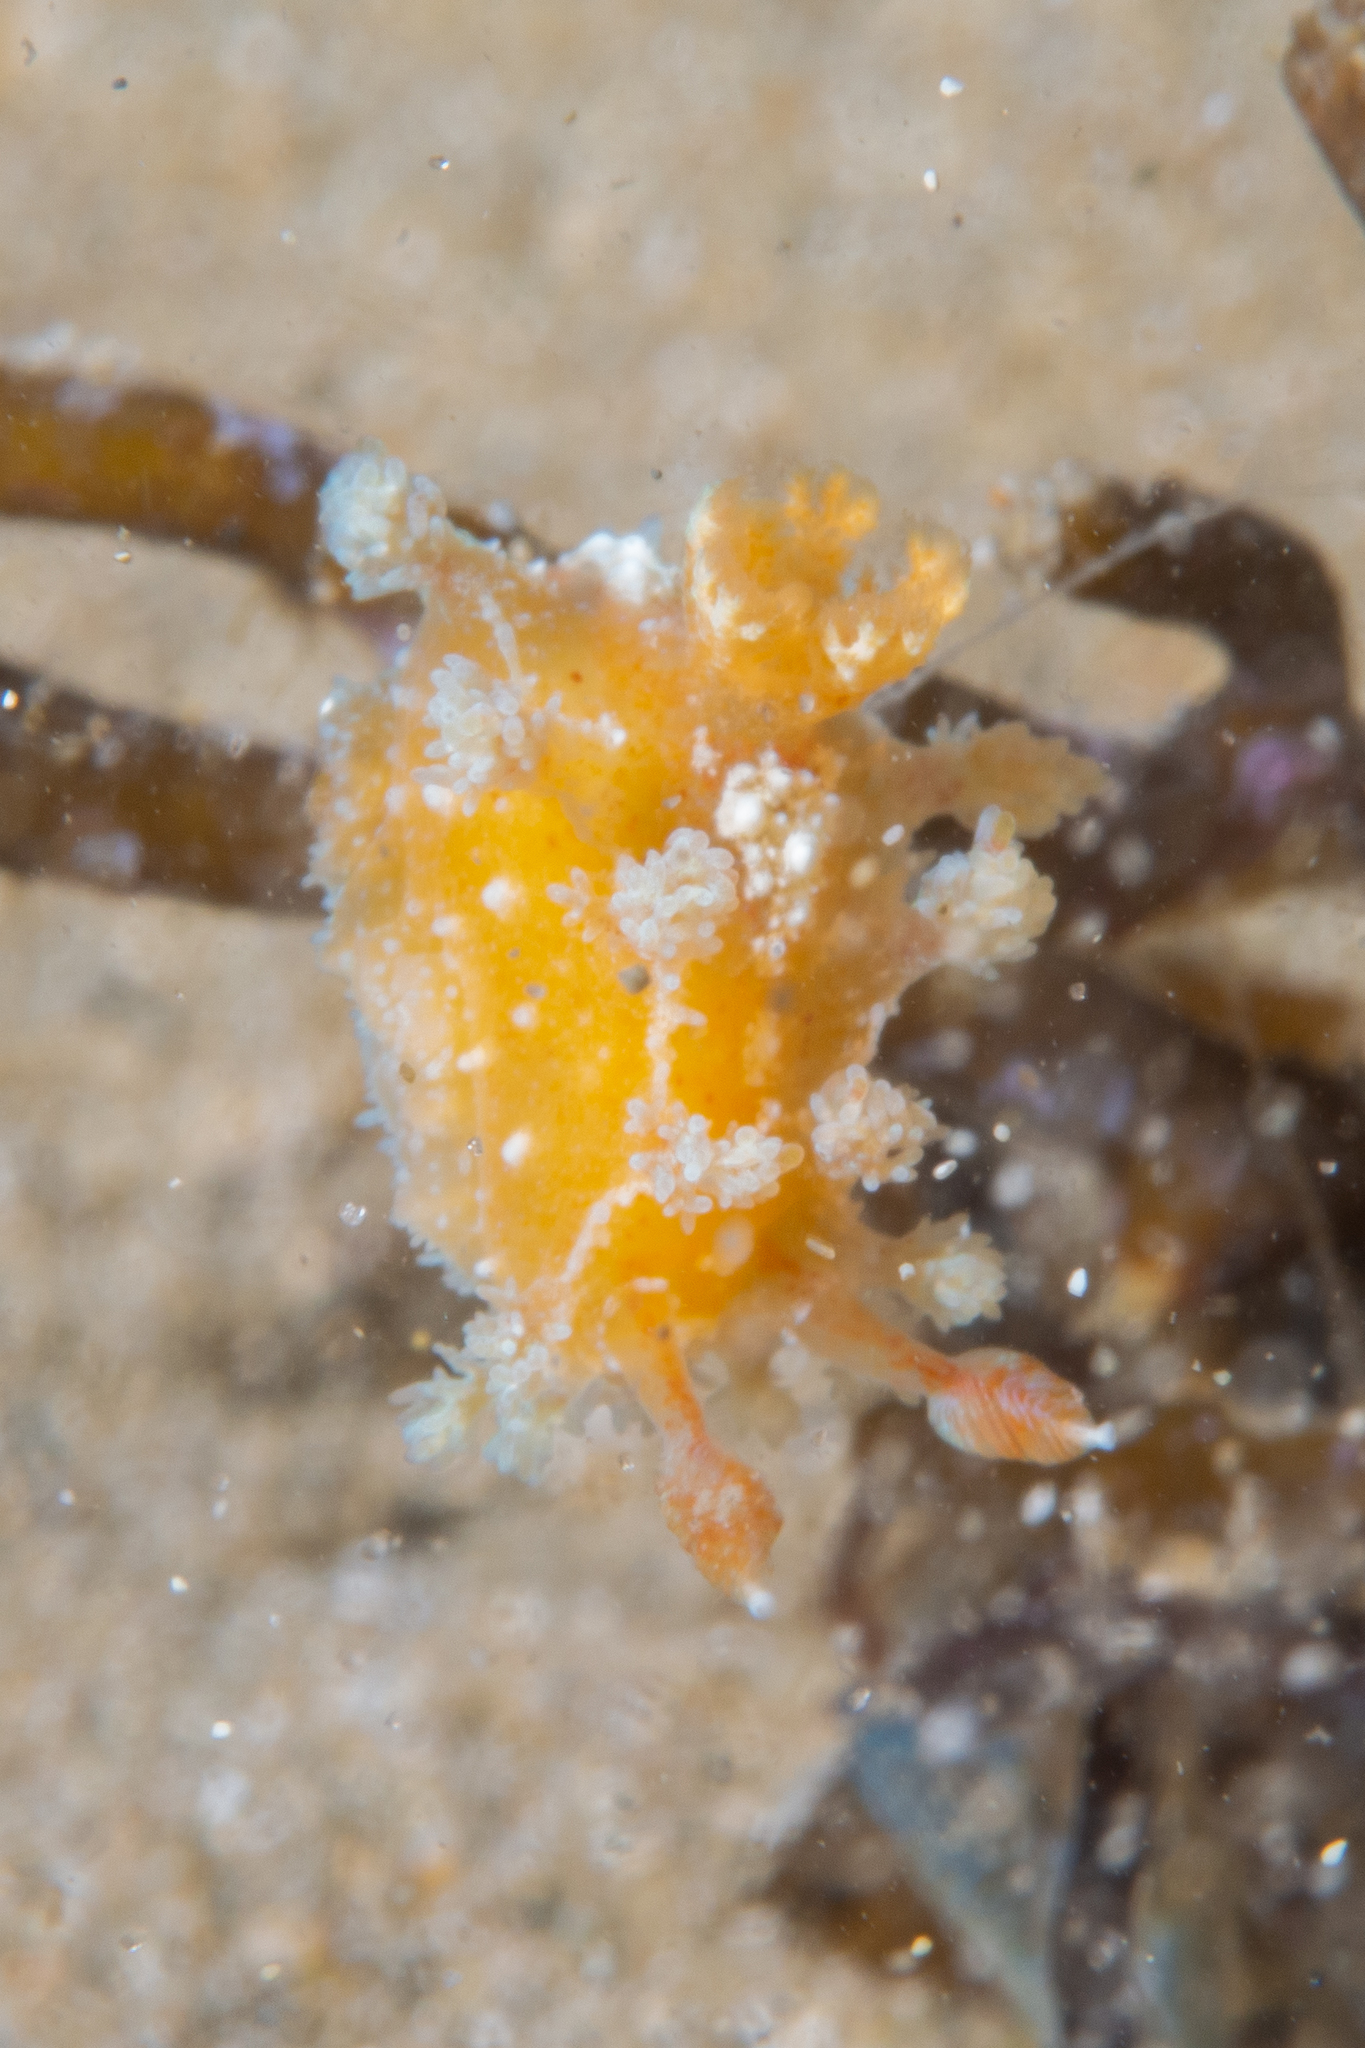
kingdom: Animalia
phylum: Mollusca
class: Gastropoda
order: Nudibranchia
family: Polyceridae
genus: Kaloplocamus
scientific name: Kaloplocamus ramosus
